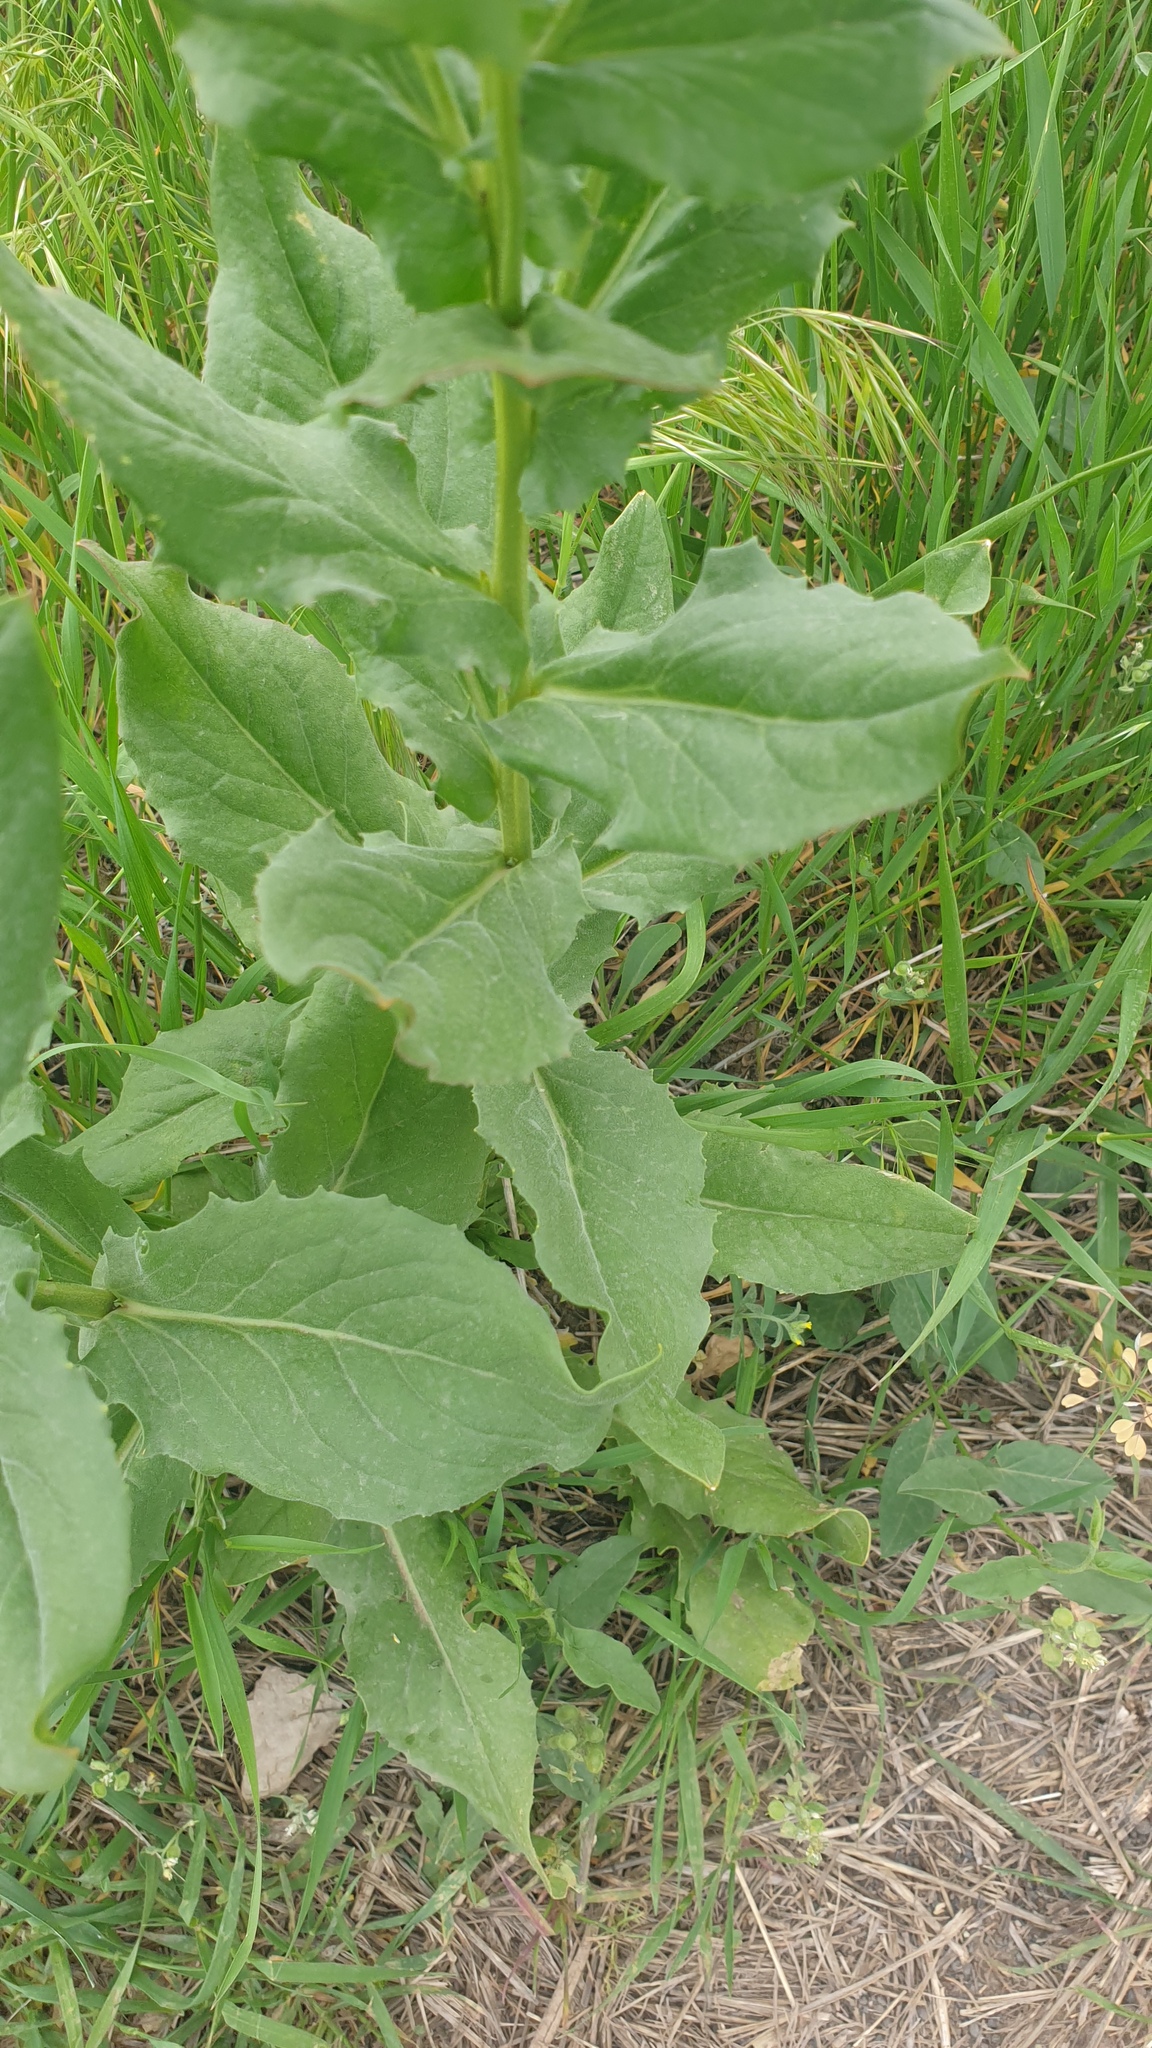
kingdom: Plantae
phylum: Tracheophyta
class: Magnoliopsida
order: Brassicales
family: Brassicaceae
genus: Lepidium
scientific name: Lepidium draba
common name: Hoary cress
